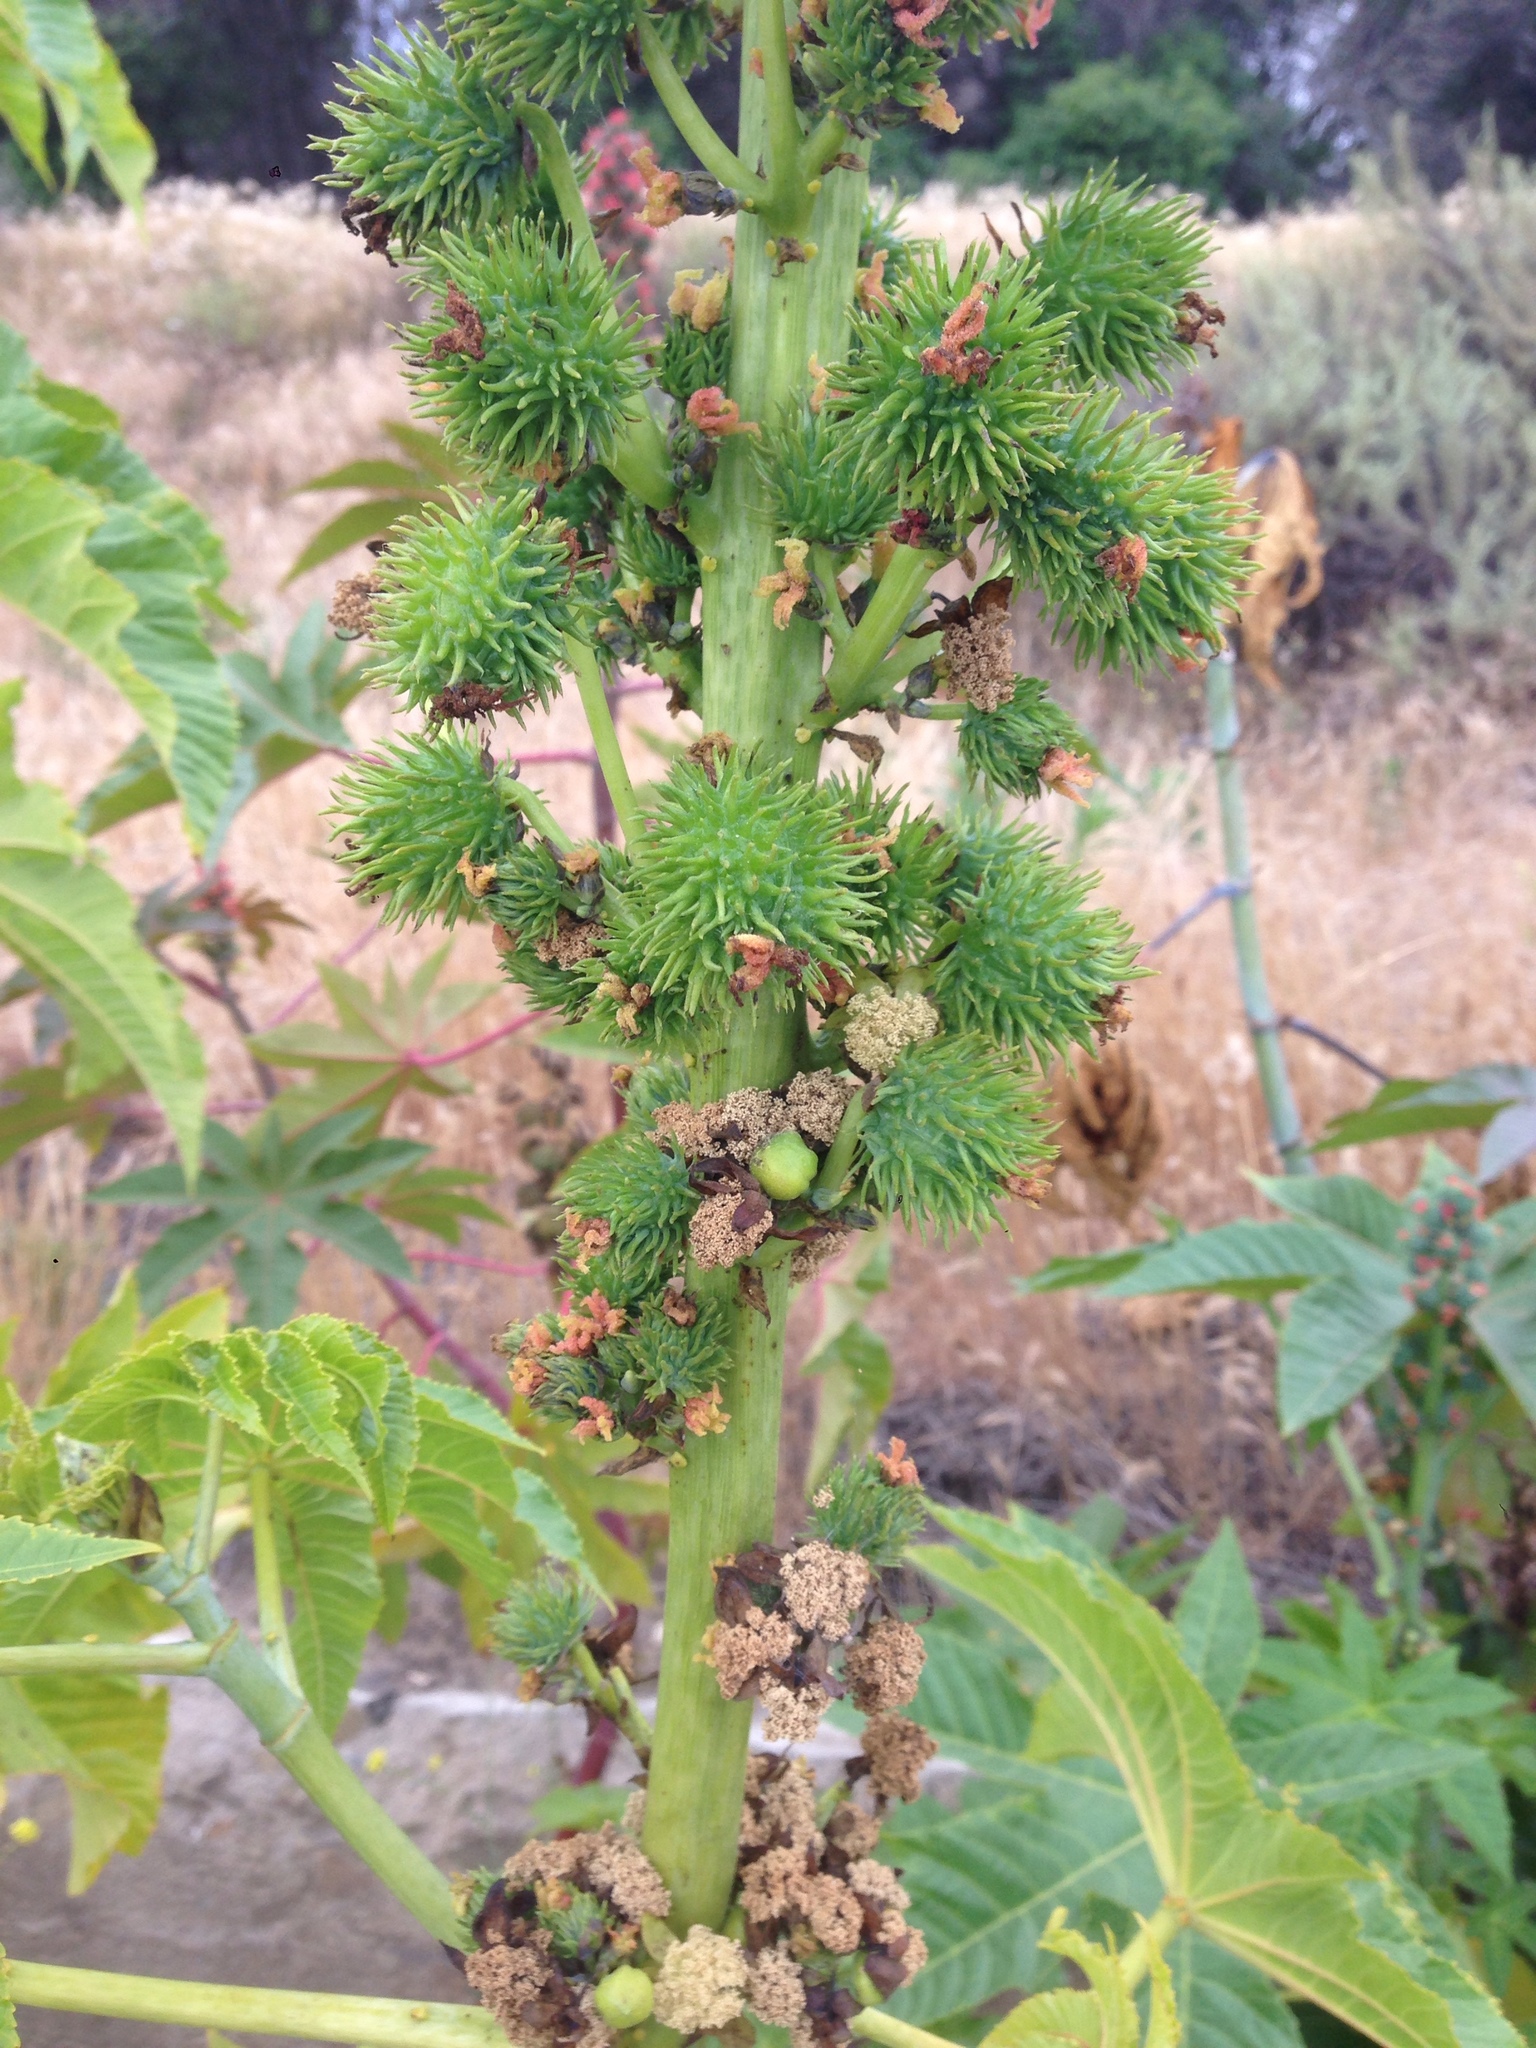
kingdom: Plantae
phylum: Tracheophyta
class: Magnoliopsida
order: Malpighiales
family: Euphorbiaceae
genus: Ricinus
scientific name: Ricinus communis
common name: Castor-oil-plant
